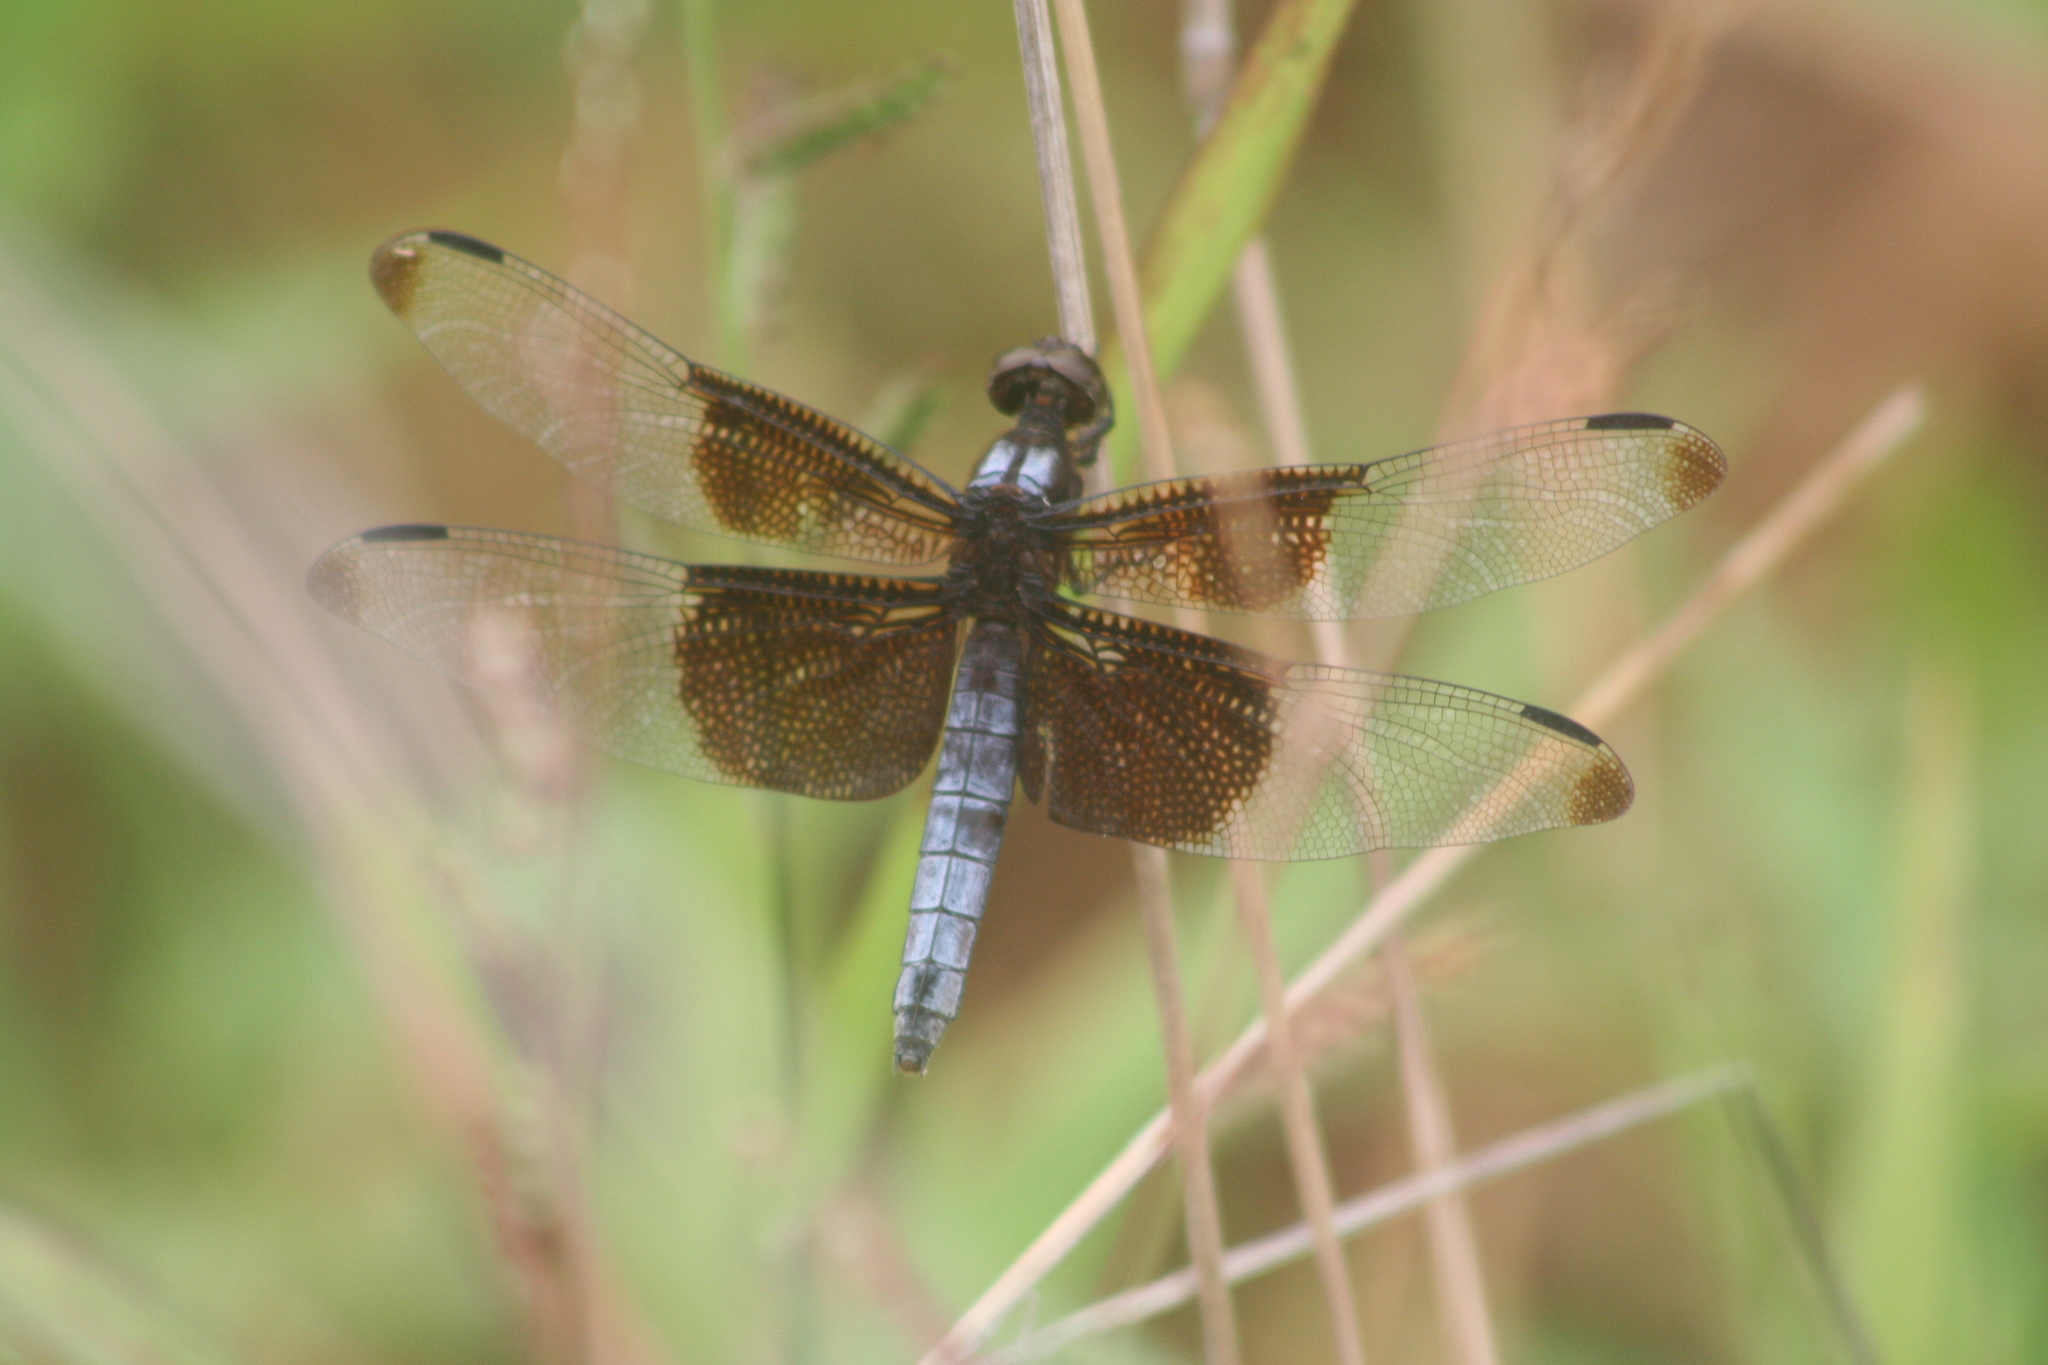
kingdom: Animalia
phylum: Arthropoda
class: Insecta
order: Odonata
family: Libellulidae
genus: Libellula
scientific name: Libellula luctuosa
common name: Widow skimmer
